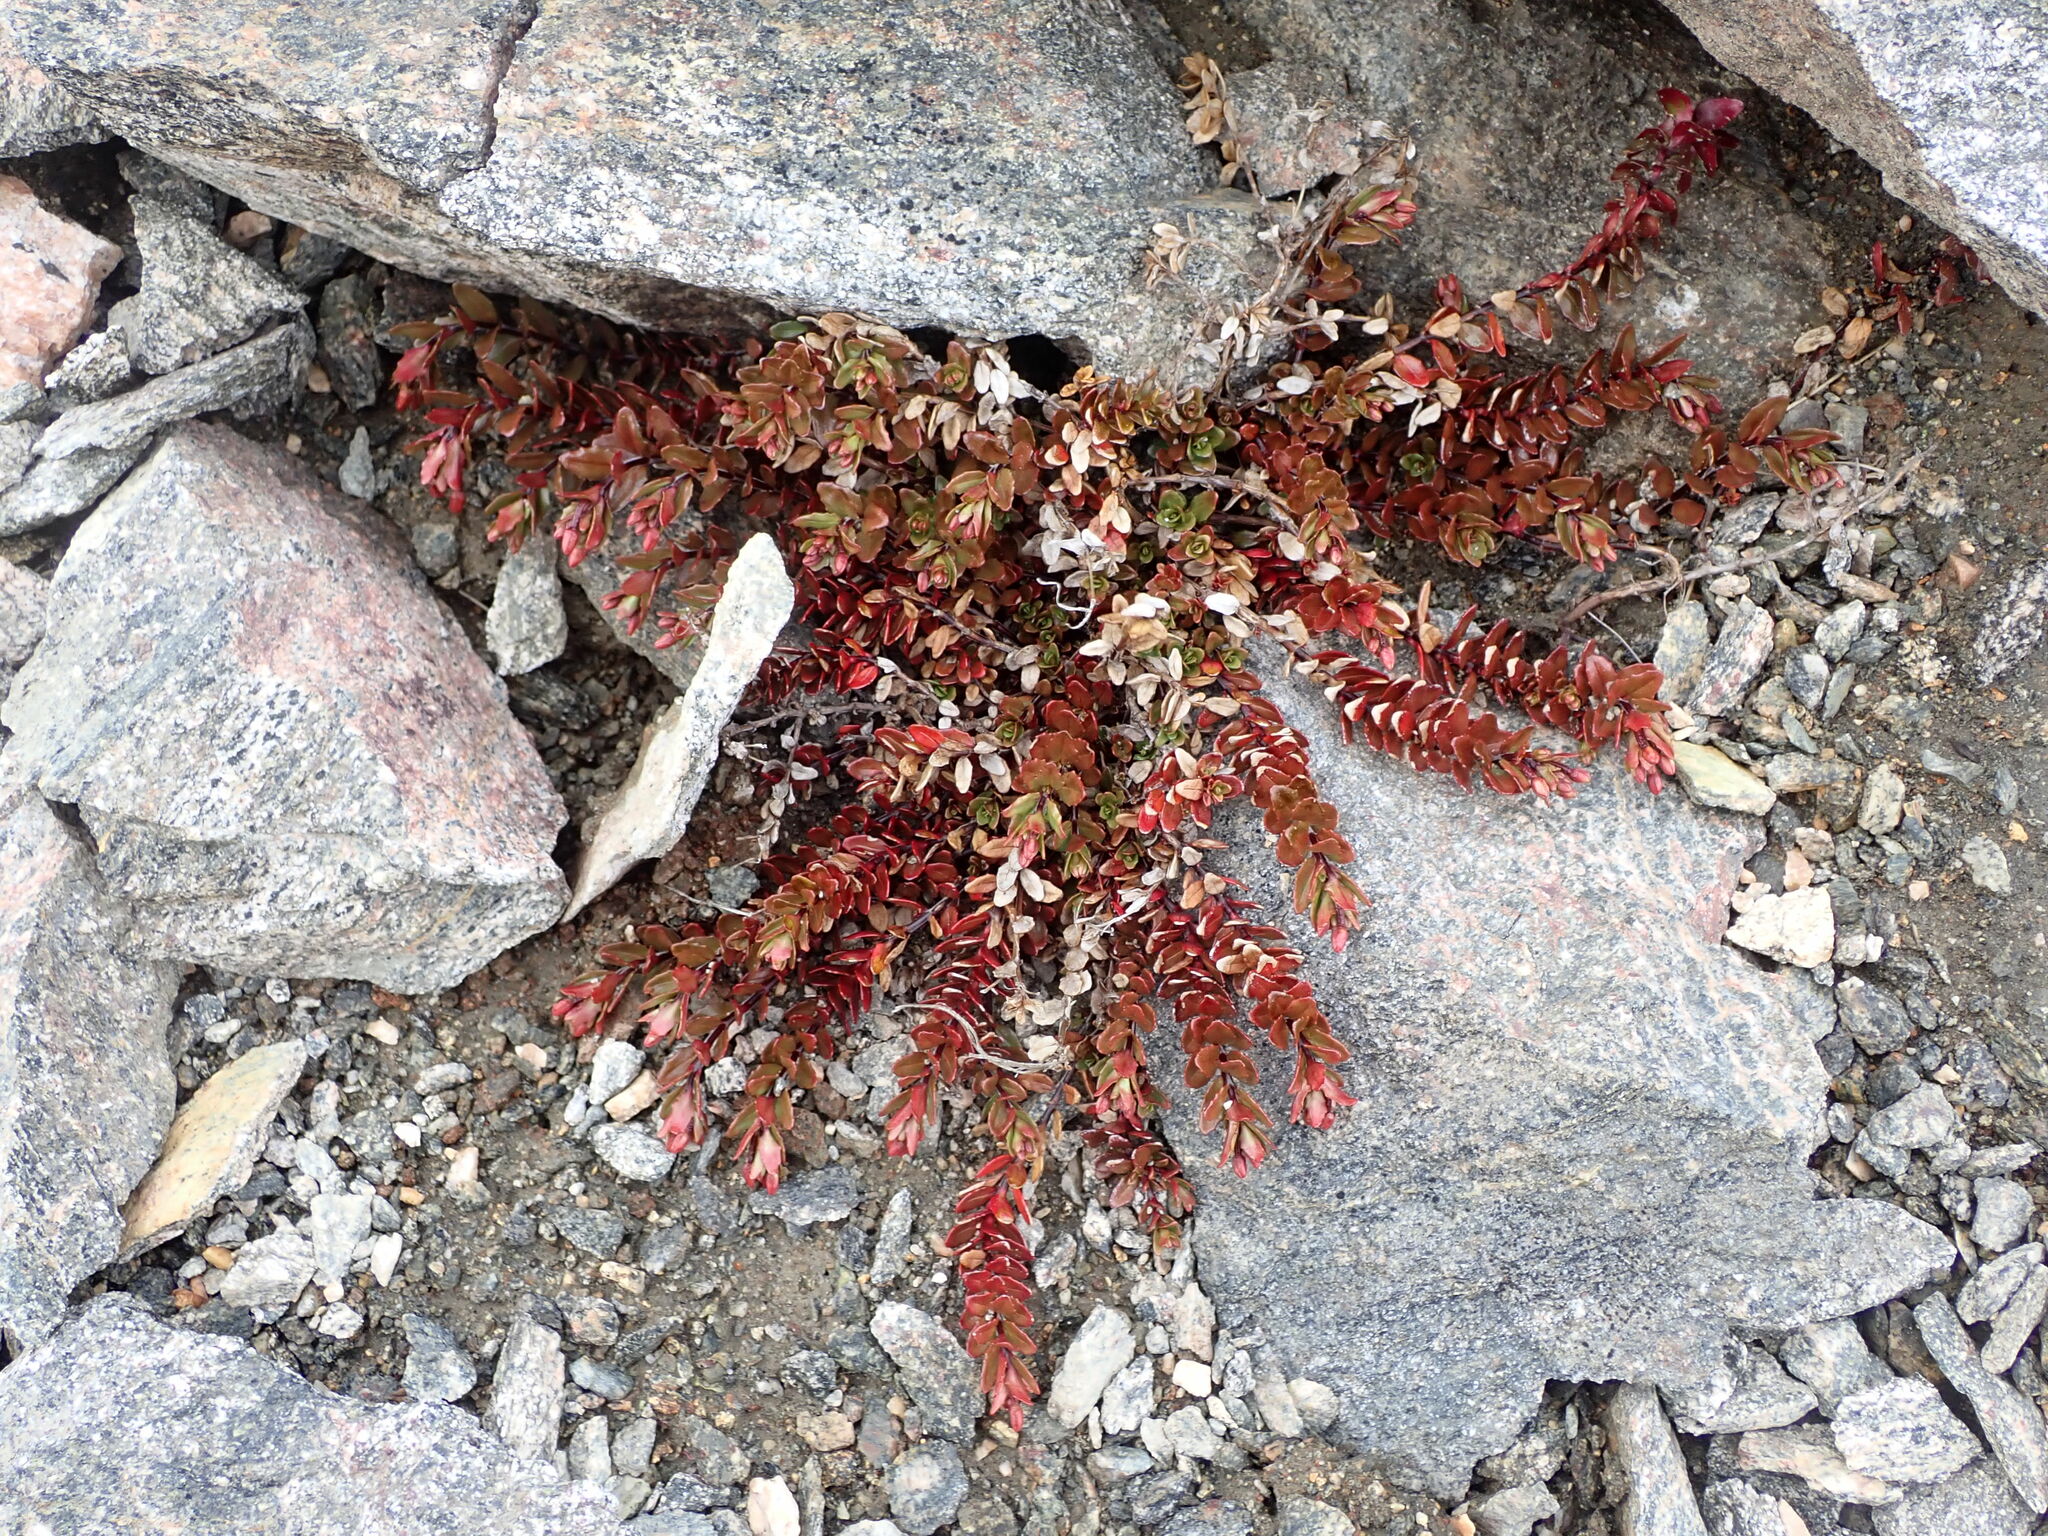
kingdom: Plantae
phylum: Tracheophyta
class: Magnoliopsida
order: Myrtales
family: Onagraceae
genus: Epilobium
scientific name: Epilobium porphyrium
